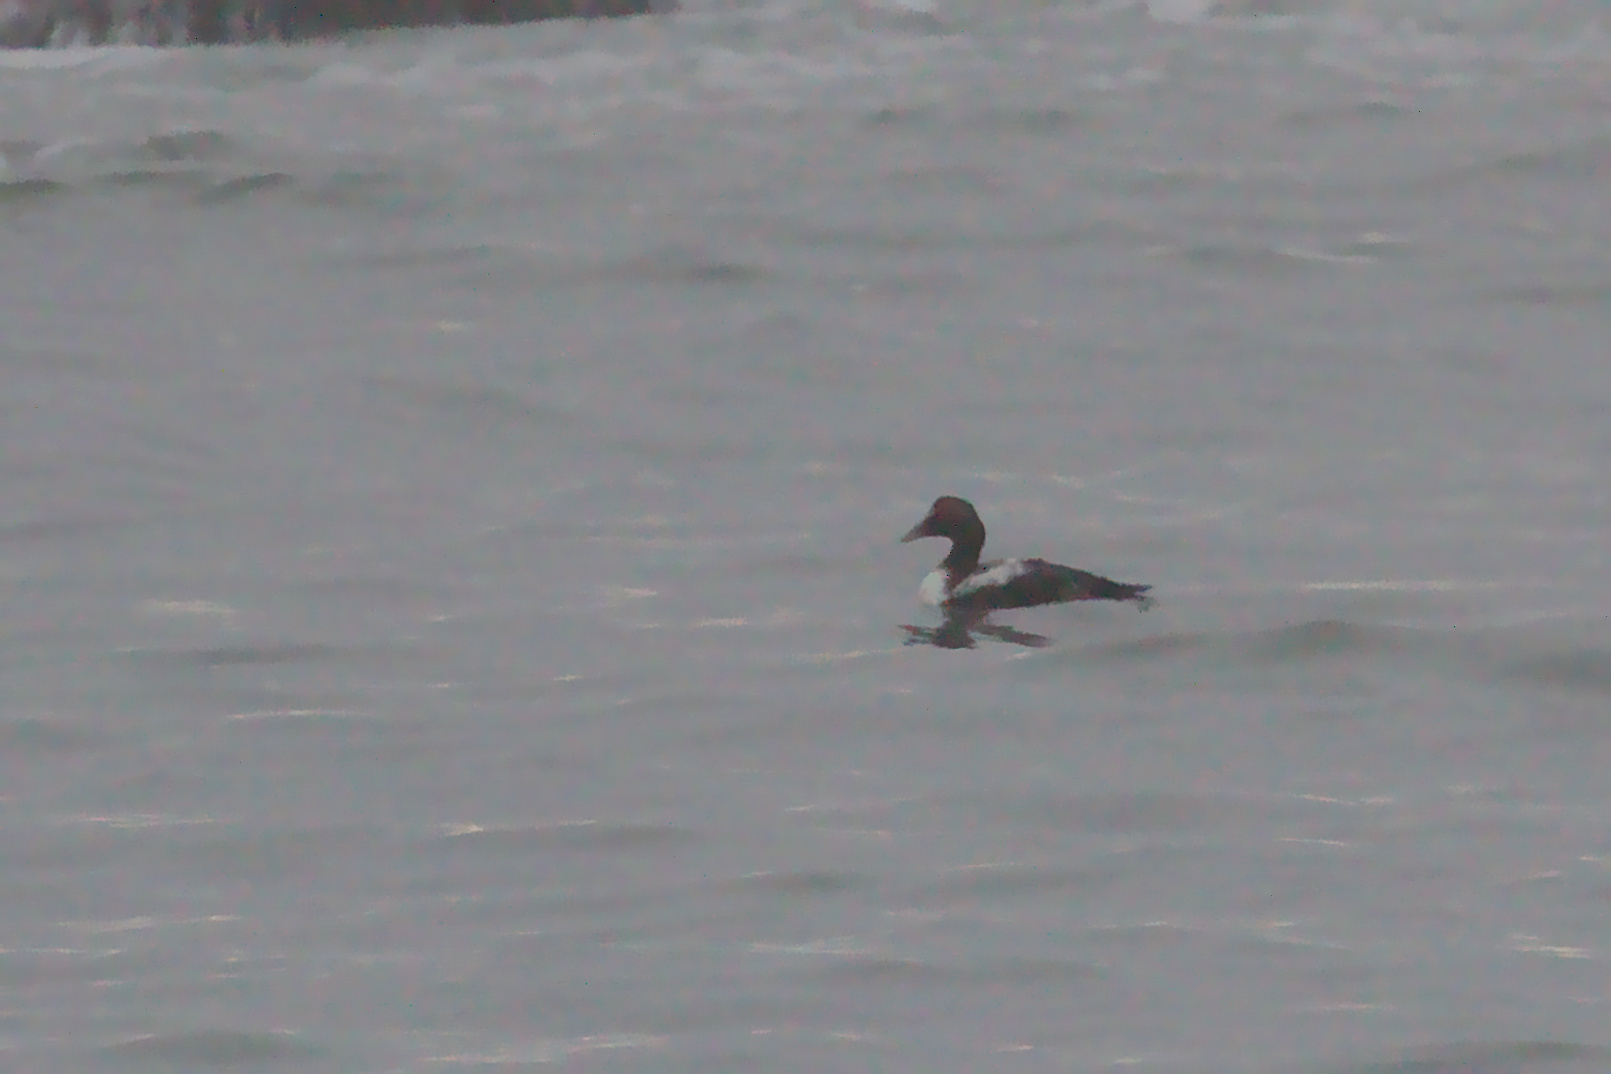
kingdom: Animalia
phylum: Chordata
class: Aves
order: Anseriformes
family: Anatidae
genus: Somateria
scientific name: Somateria mollissima
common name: Common eider
